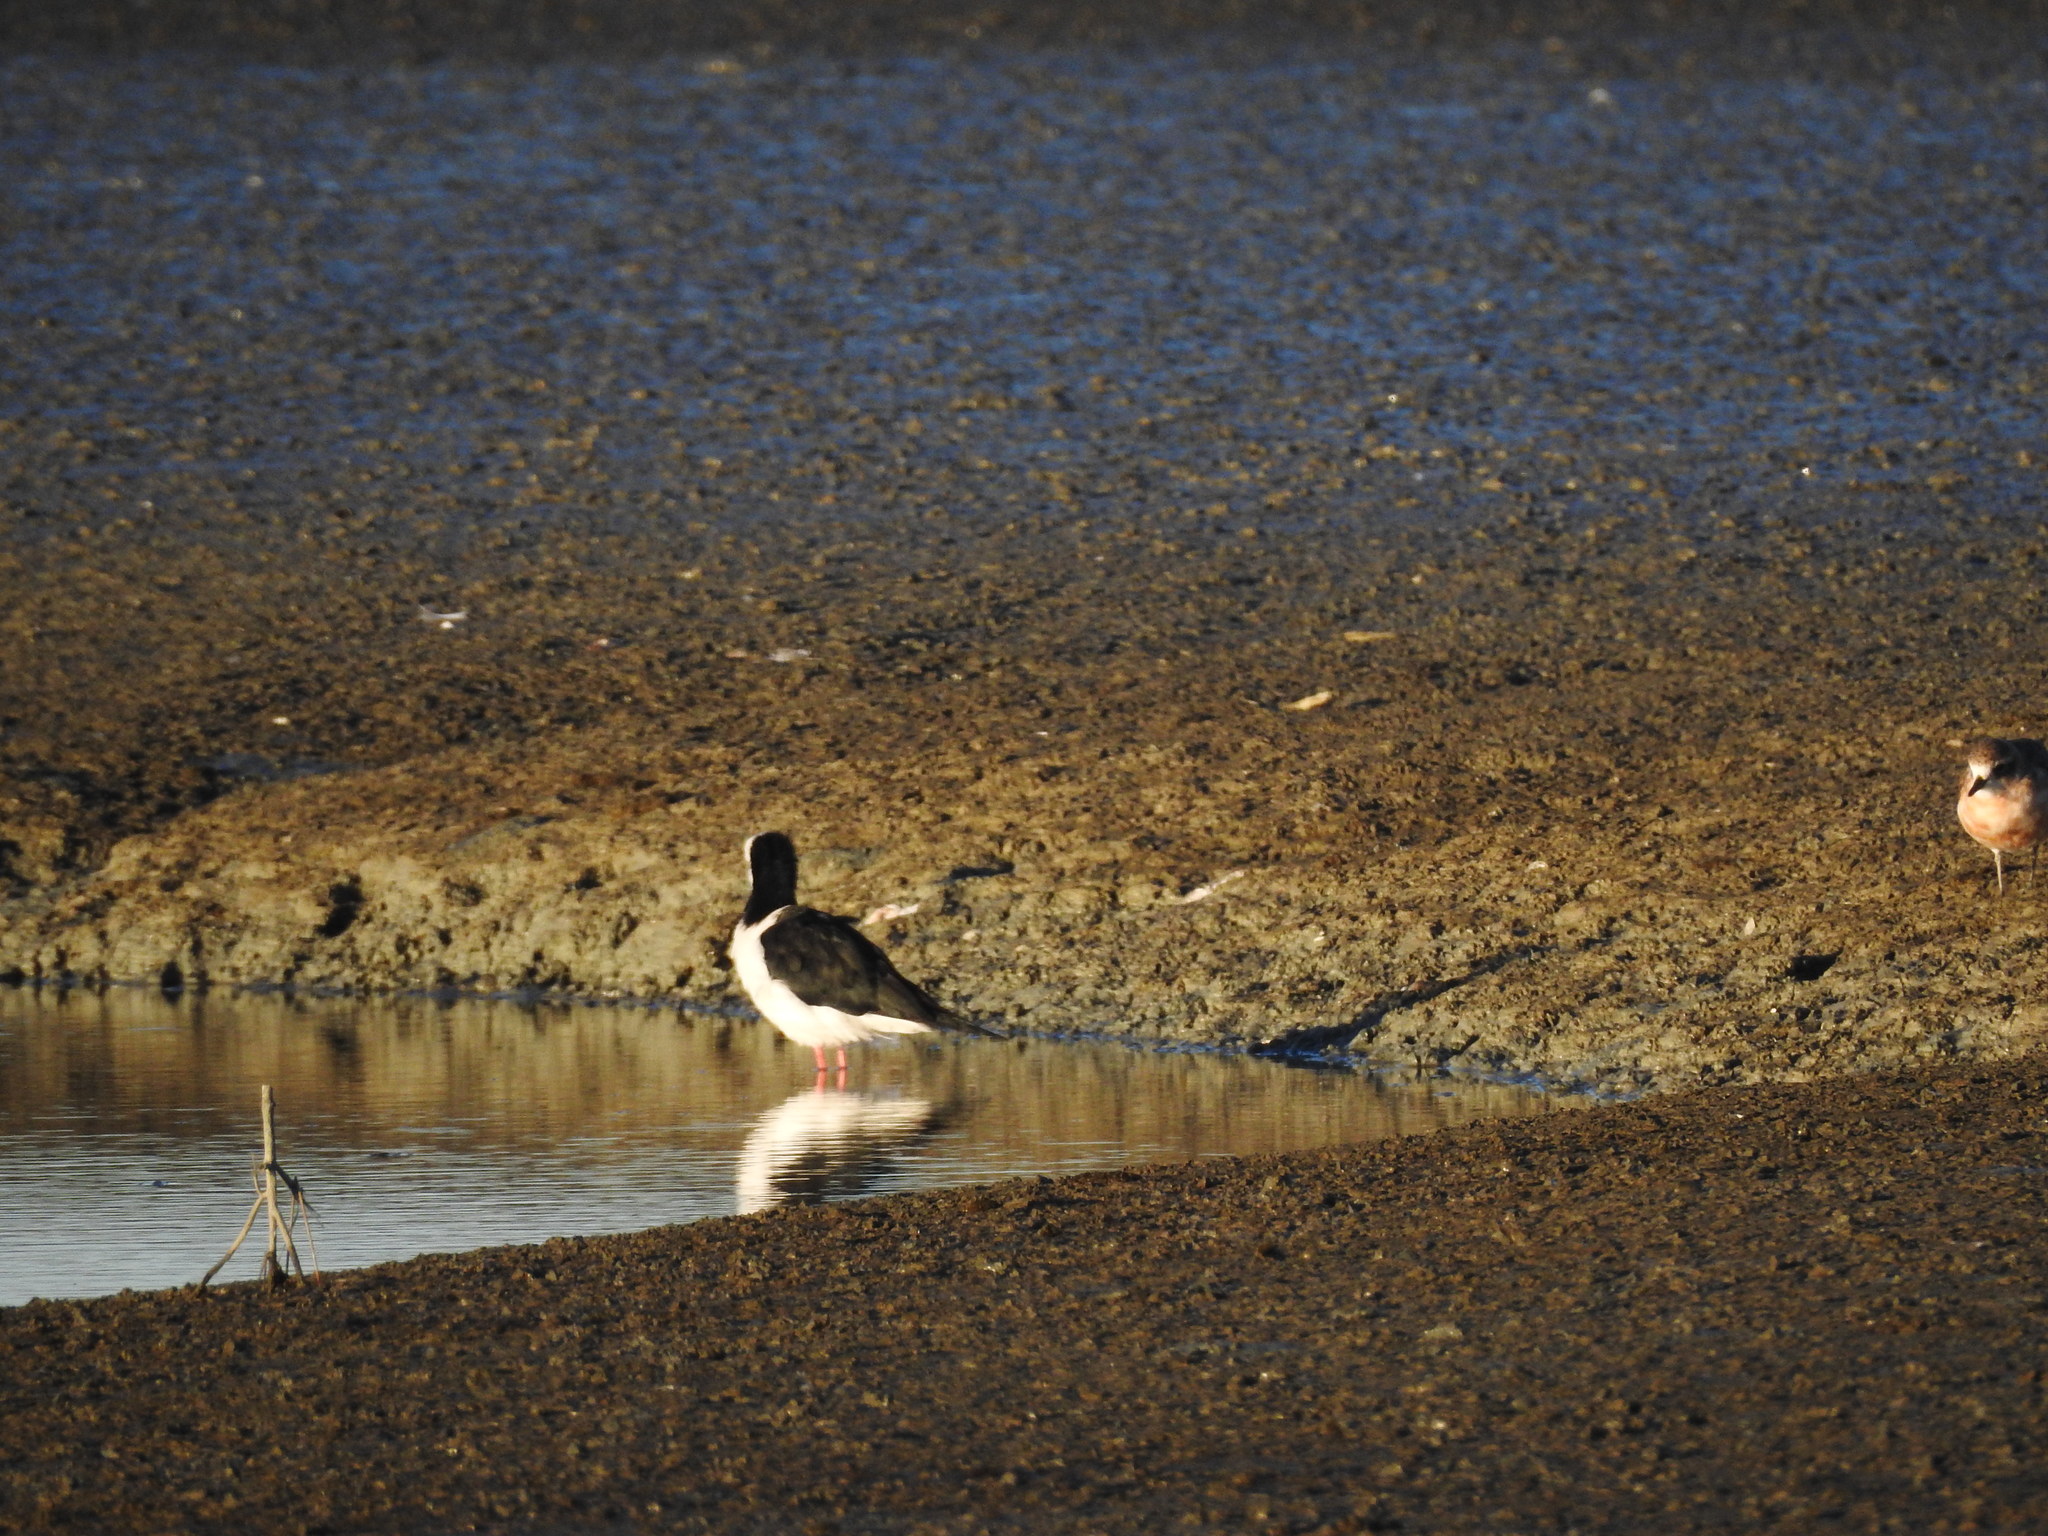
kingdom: Animalia
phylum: Chordata
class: Aves
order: Charadriiformes
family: Recurvirostridae
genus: Himantopus
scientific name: Himantopus leucocephalus
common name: White-headed stilt
